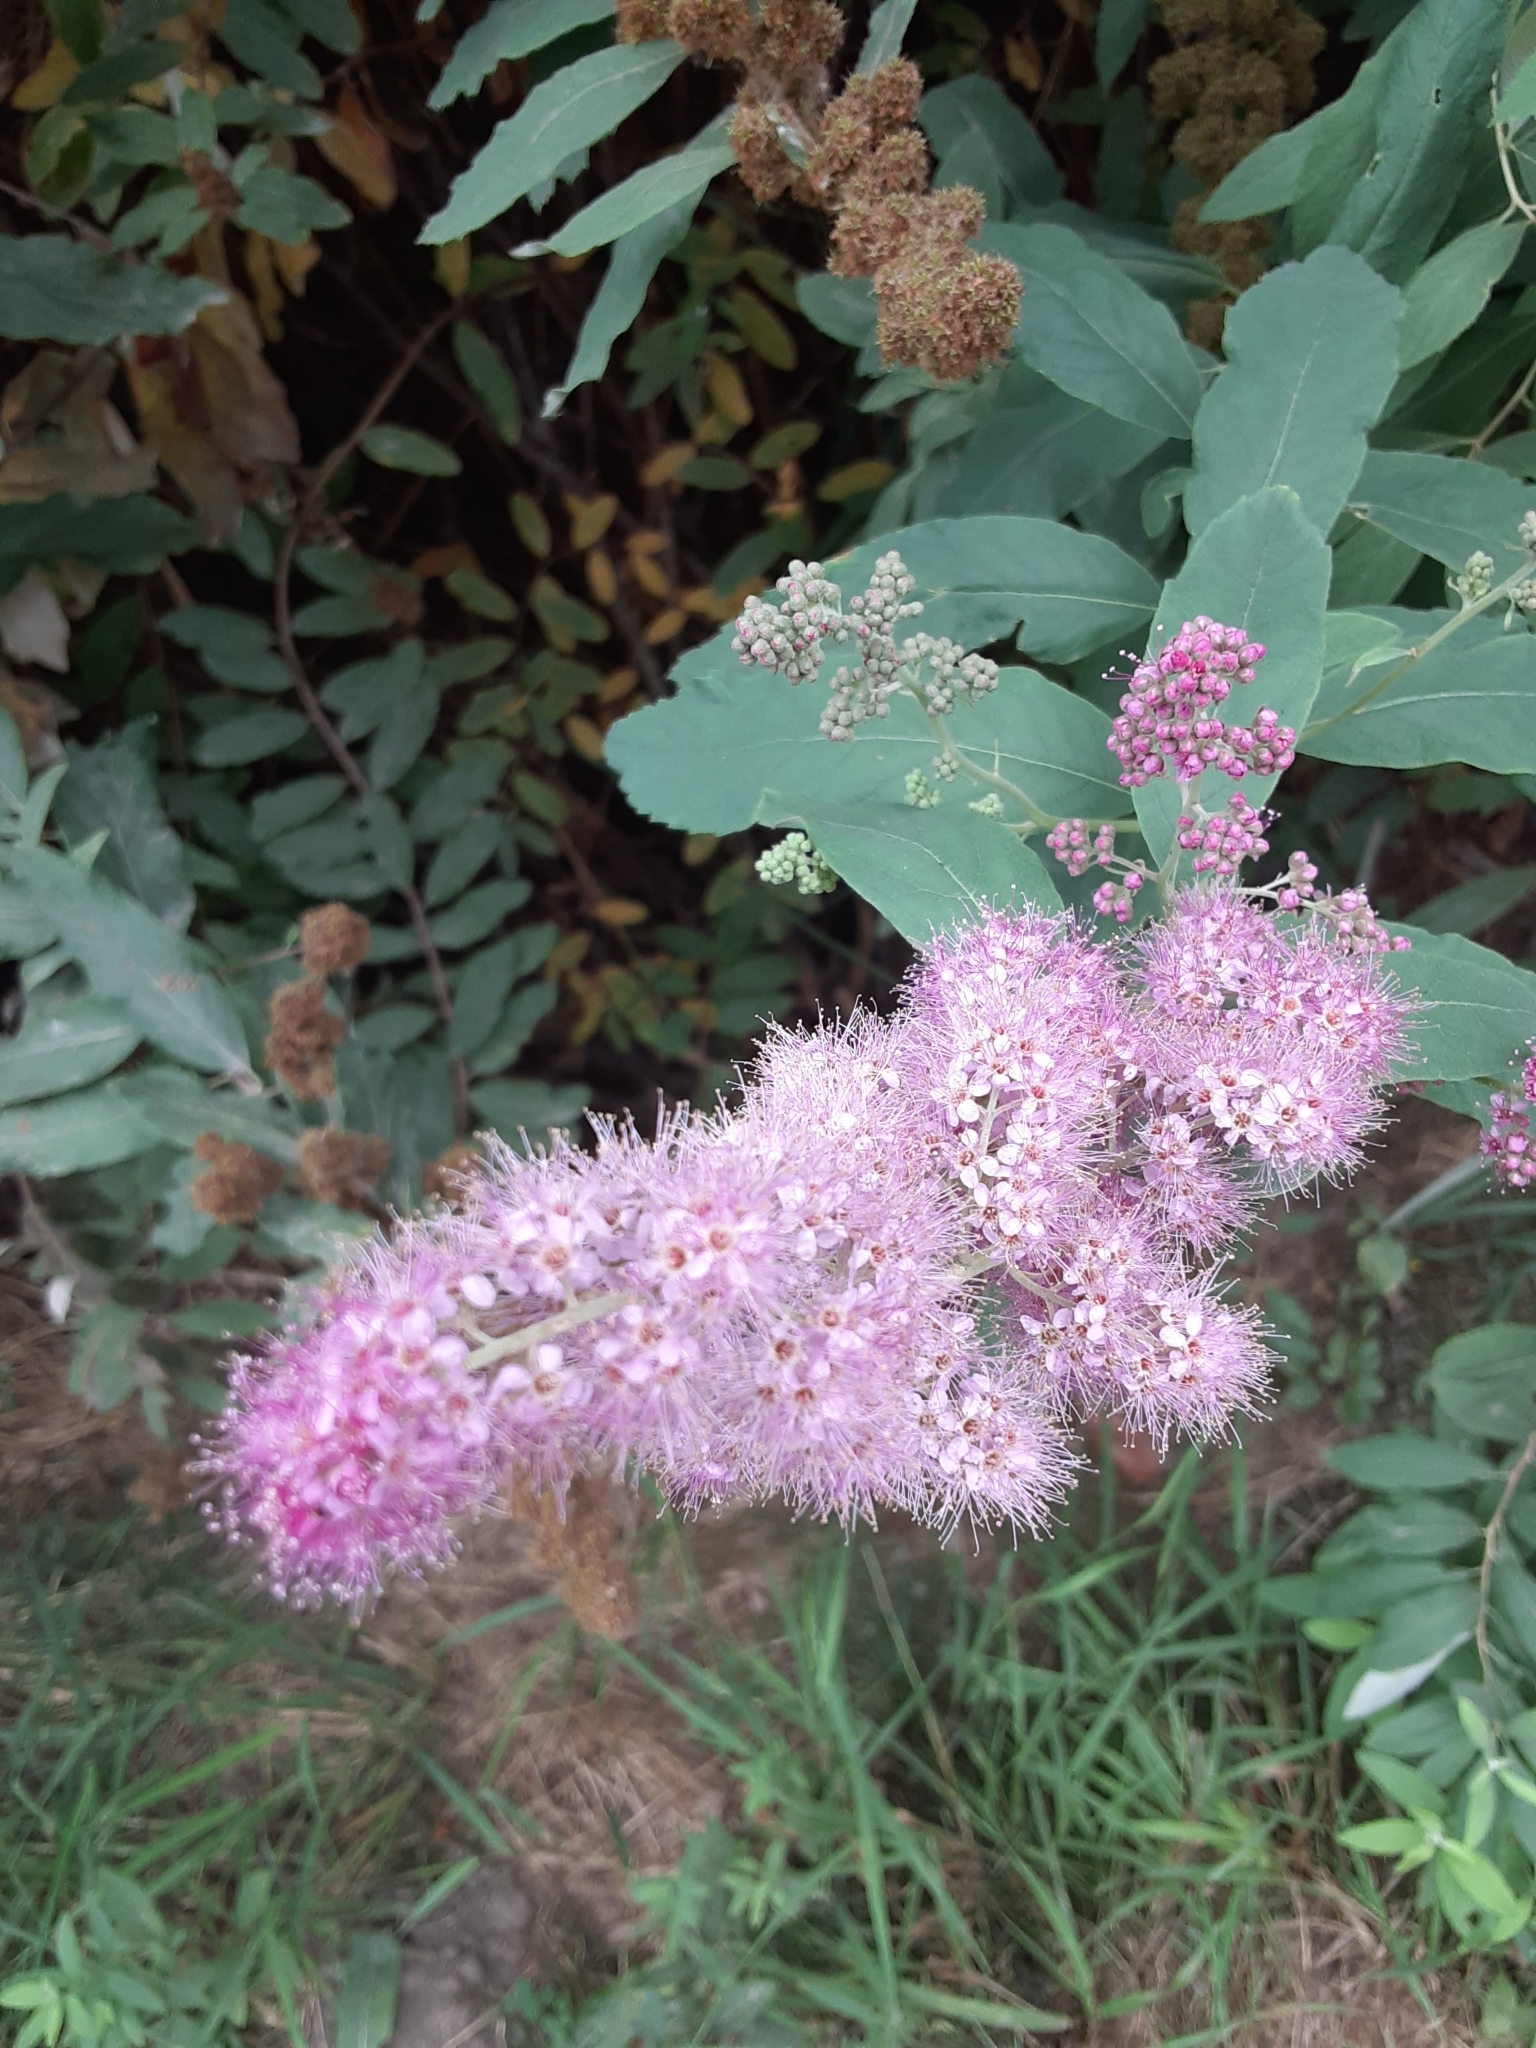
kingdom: Plantae
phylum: Tracheophyta
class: Magnoliopsida
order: Rosales
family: Rosaceae
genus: Spiraea
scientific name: Spiraea douglasii
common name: Steeplebush
